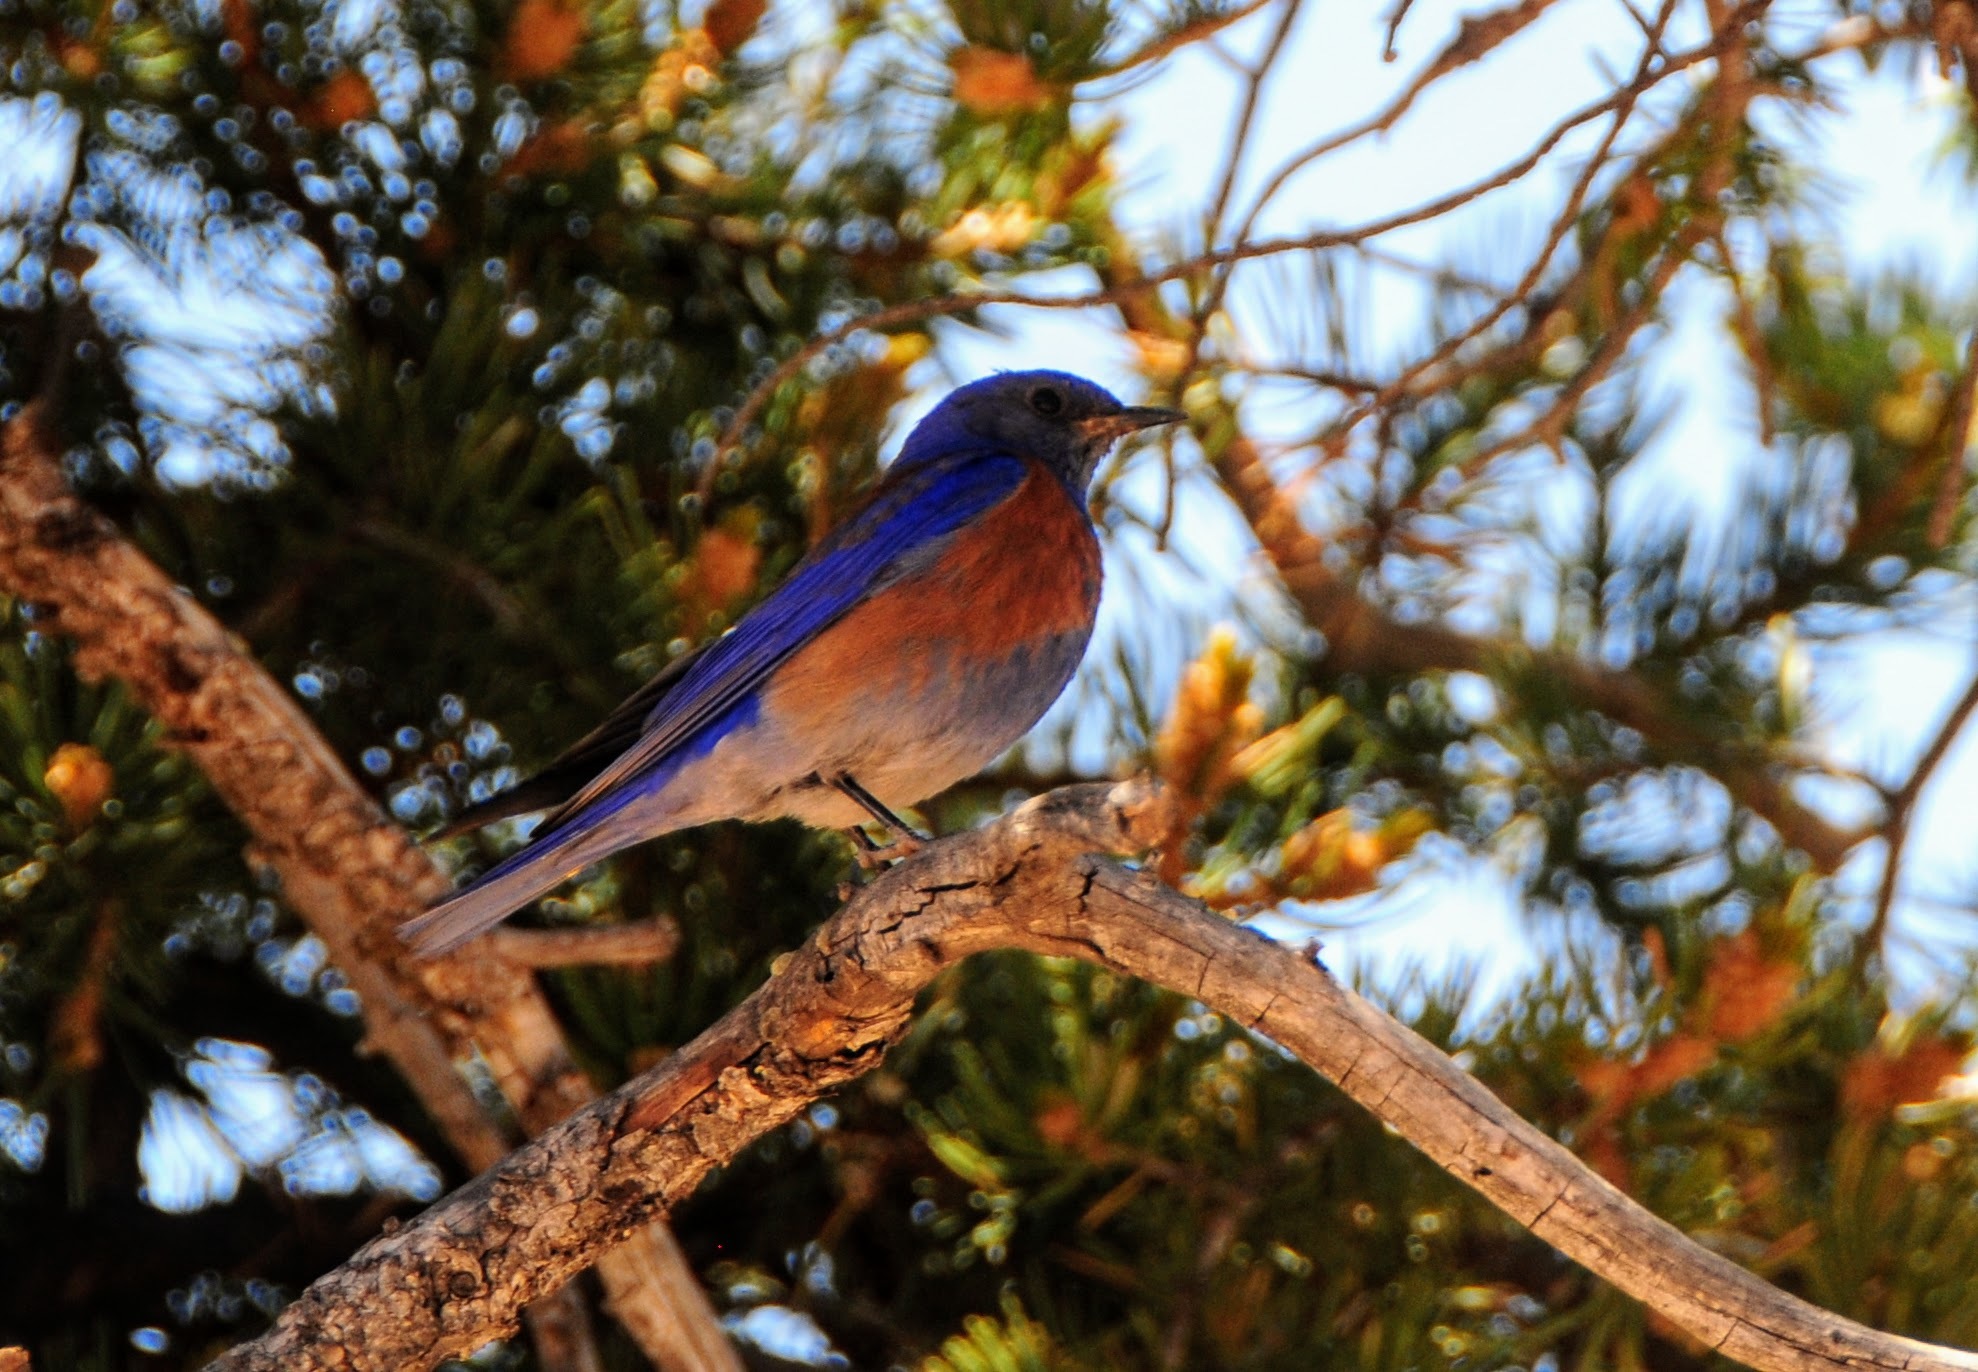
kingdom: Animalia
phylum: Chordata
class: Aves
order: Passeriformes
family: Turdidae
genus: Sialia
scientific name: Sialia mexicana
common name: Western bluebird
